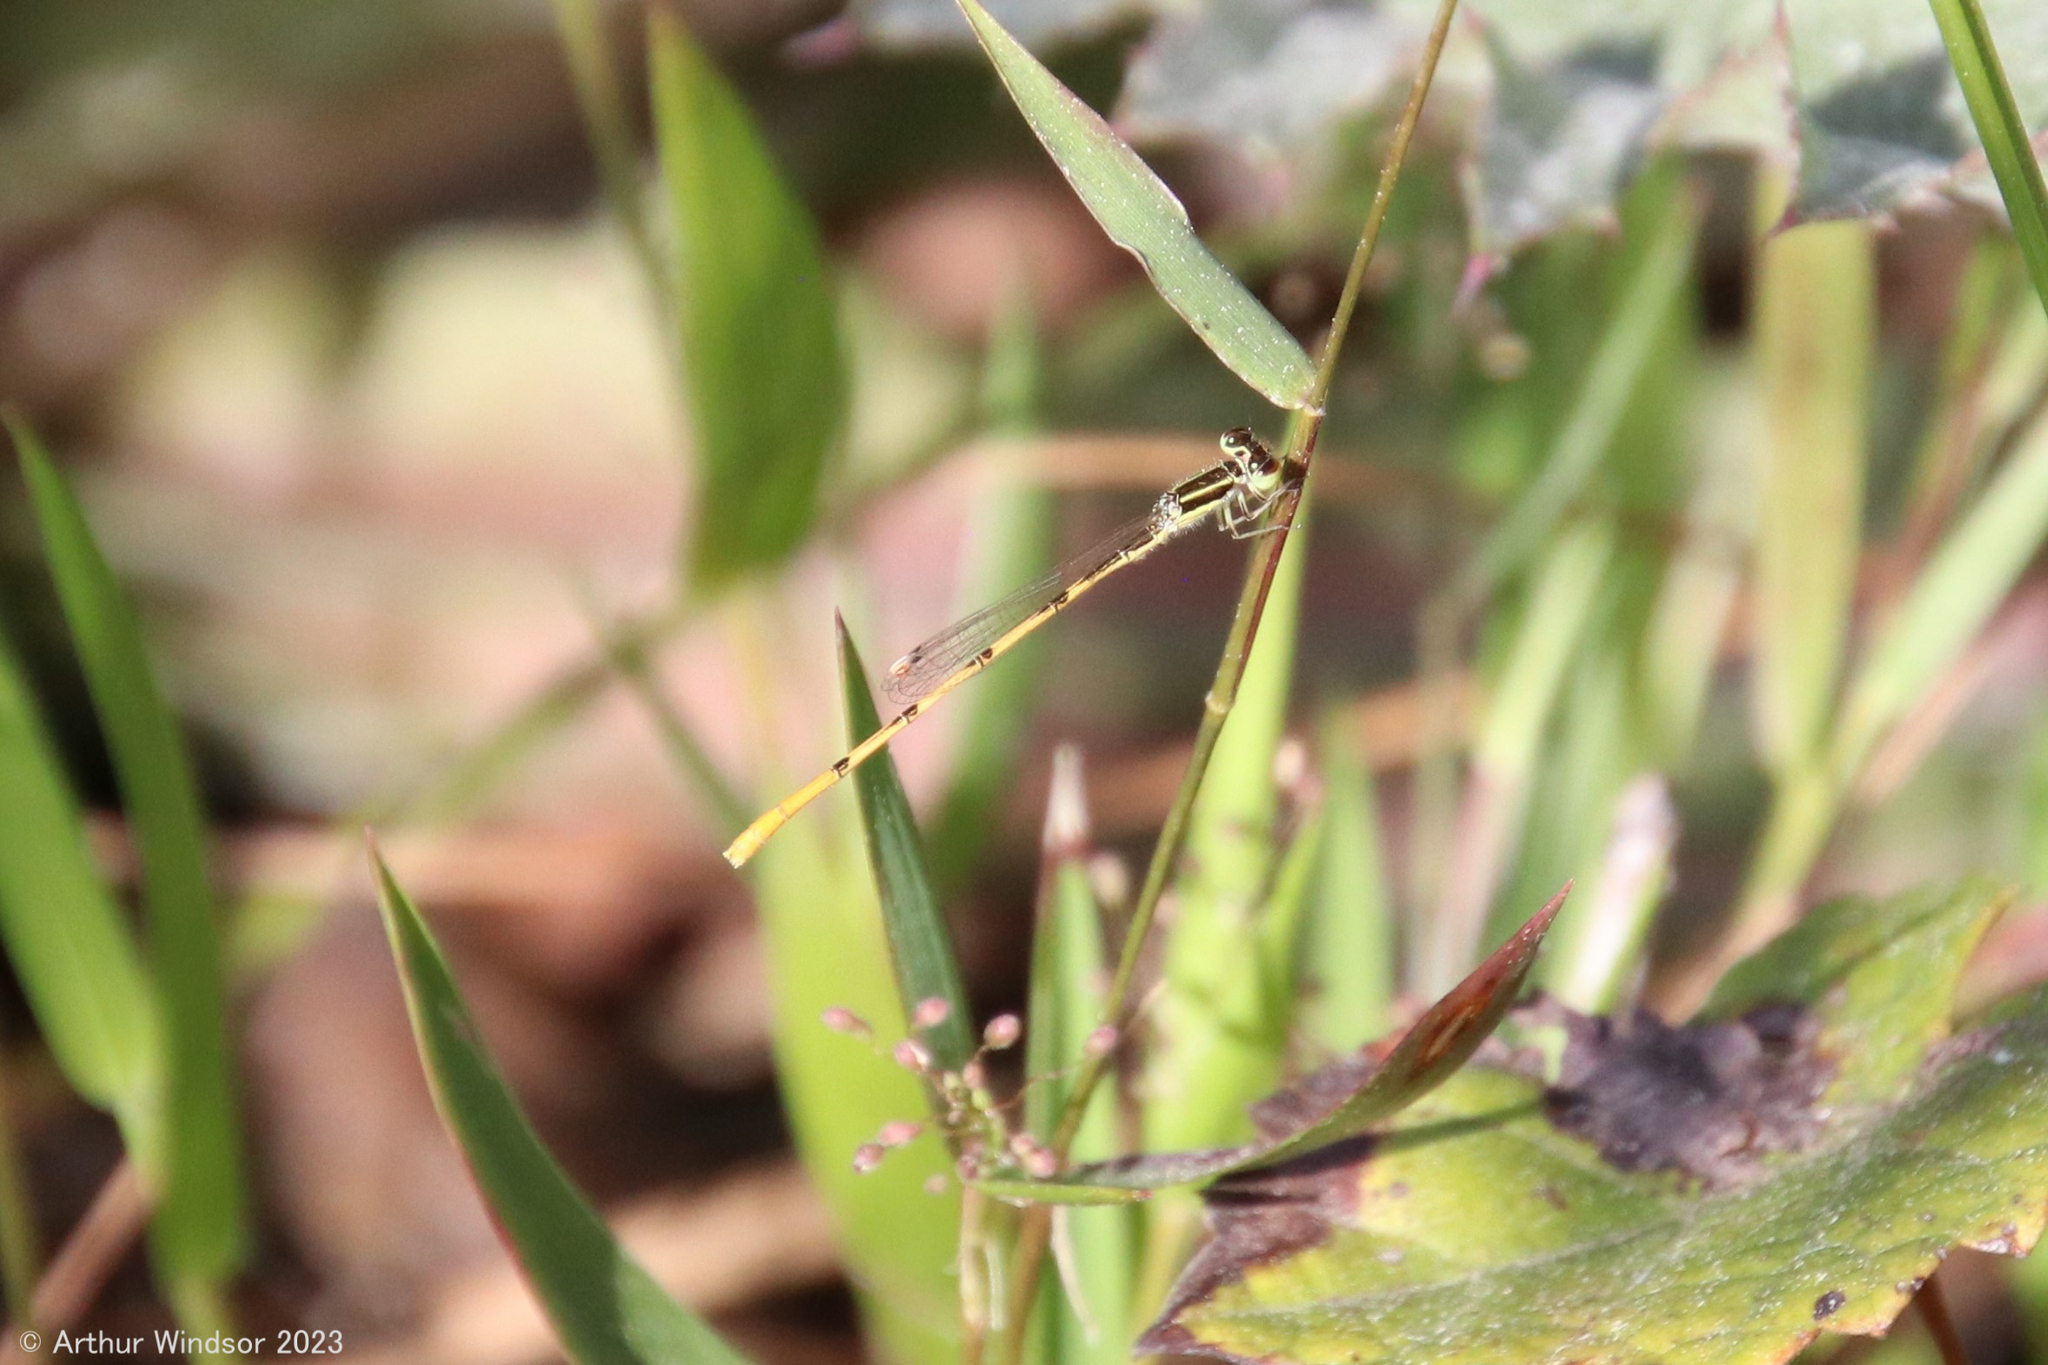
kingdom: Animalia
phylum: Arthropoda
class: Insecta
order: Odonata
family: Coenagrionidae
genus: Ischnura
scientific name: Ischnura hastata
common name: Citrine forktail
